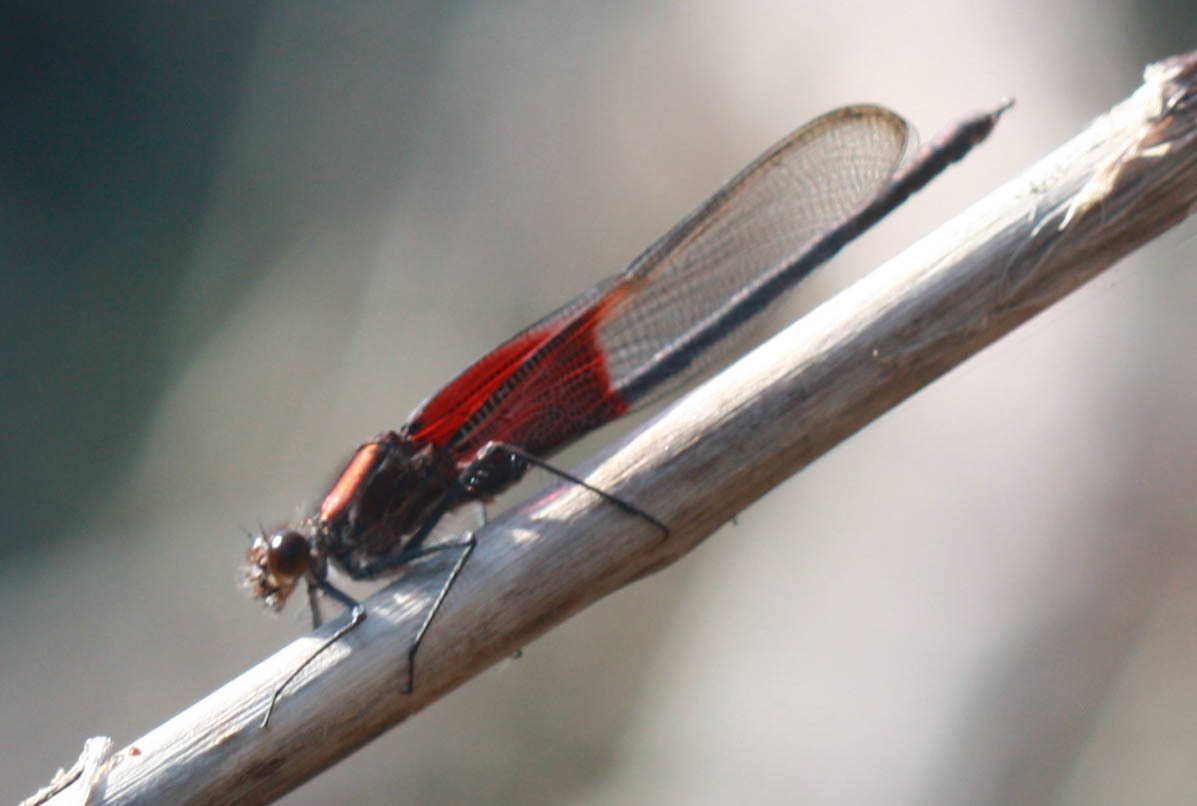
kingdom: Animalia
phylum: Arthropoda
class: Insecta
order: Odonata
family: Calopterygidae
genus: Hetaerina
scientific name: Hetaerina americana
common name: American rubyspot
